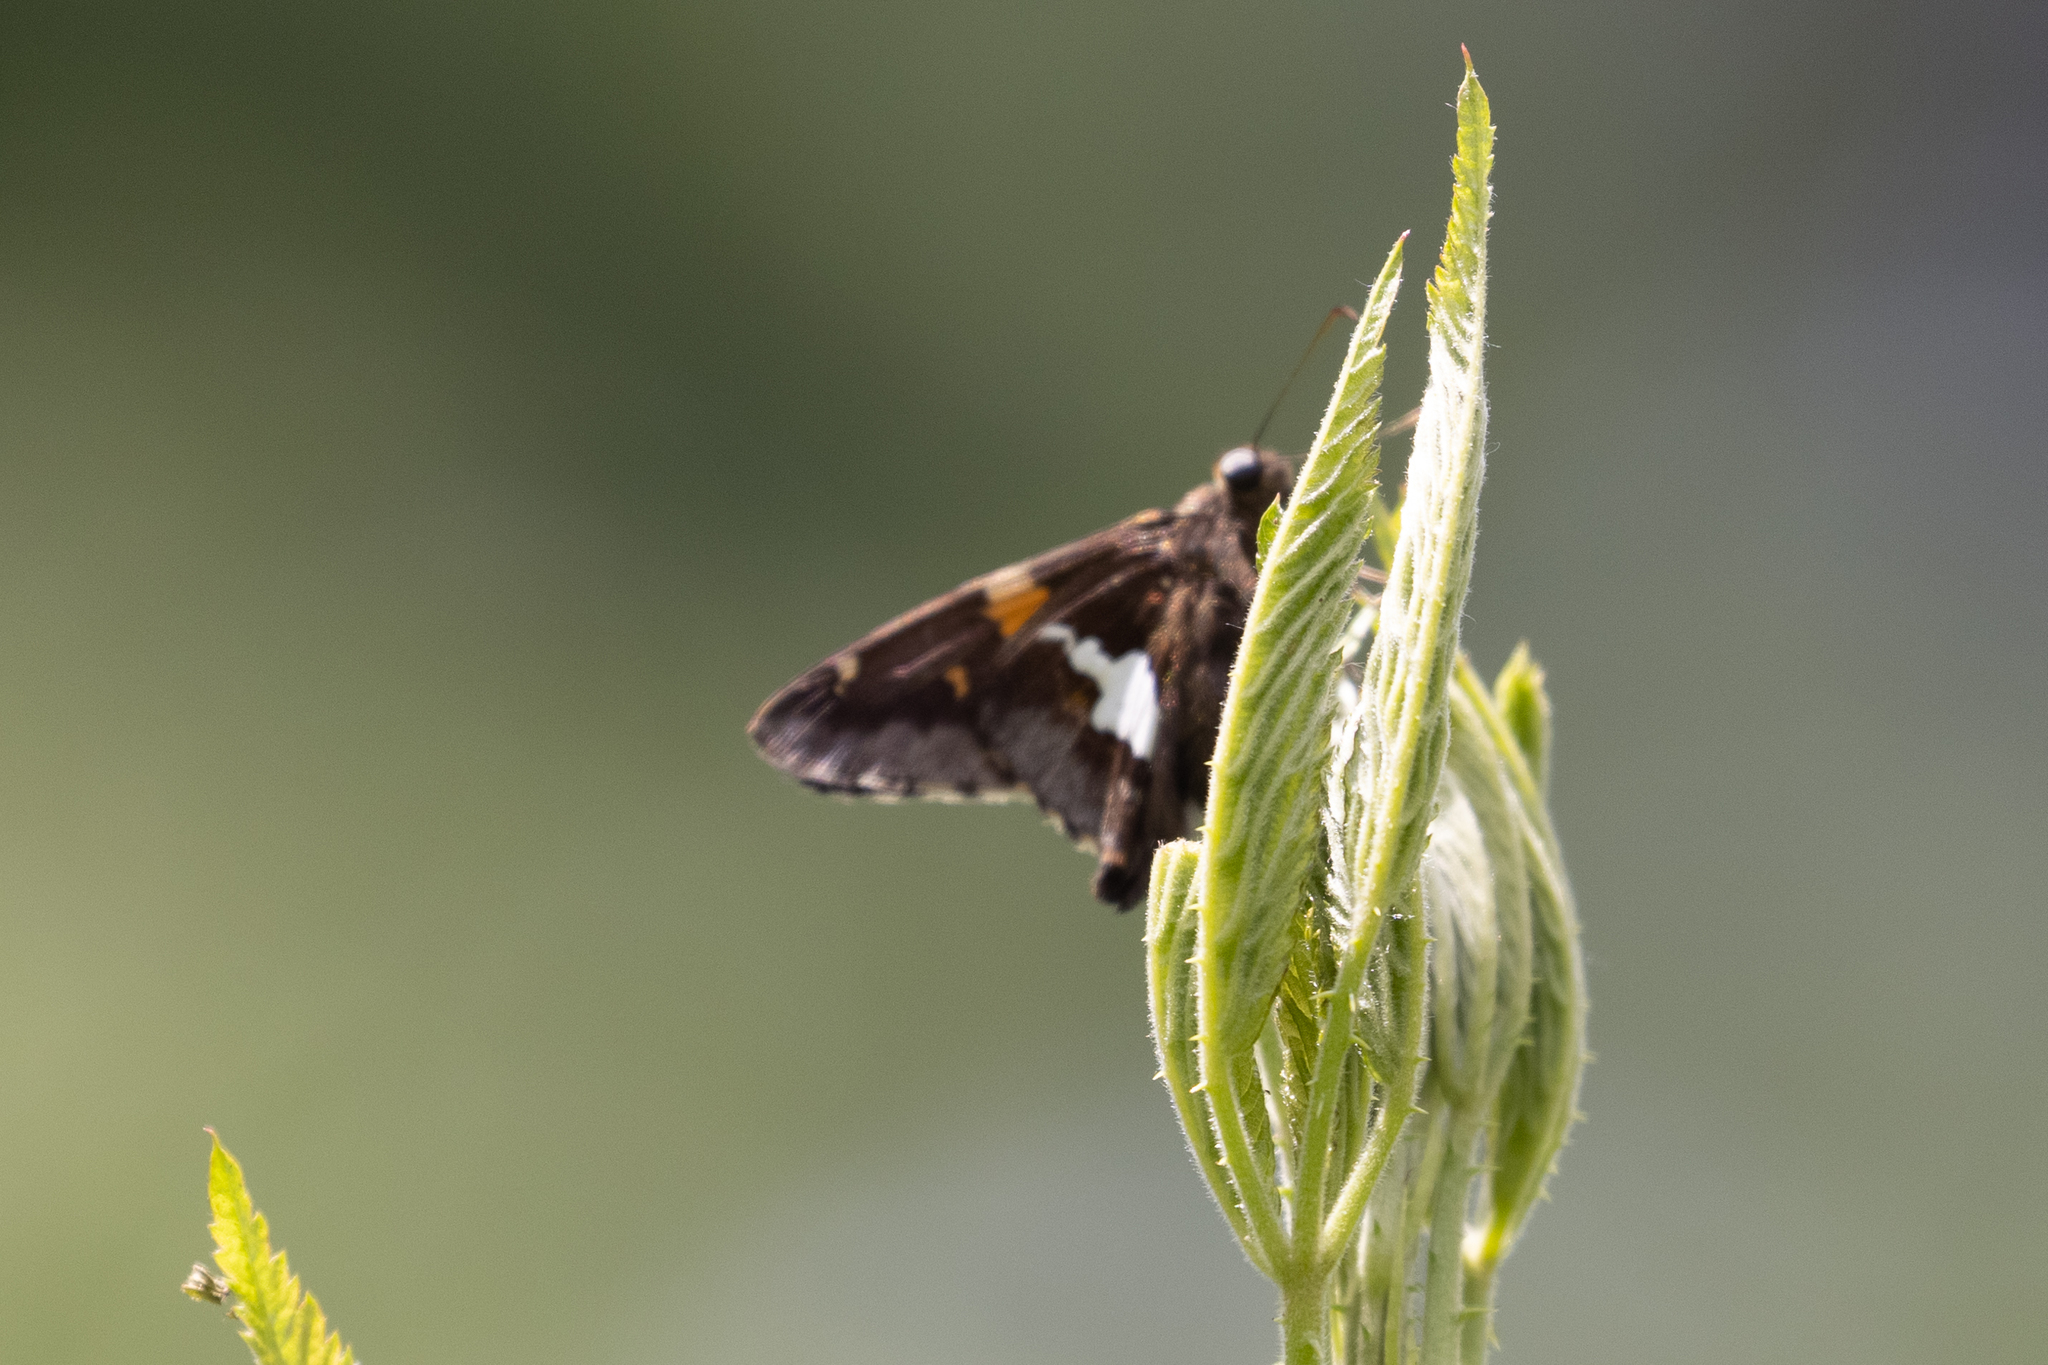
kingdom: Animalia
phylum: Arthropoda
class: Insecta
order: Lepidoptera
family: Hesperiidae
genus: Epargyreus
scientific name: Epargyreus clarus
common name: Silver-spotted skipper
